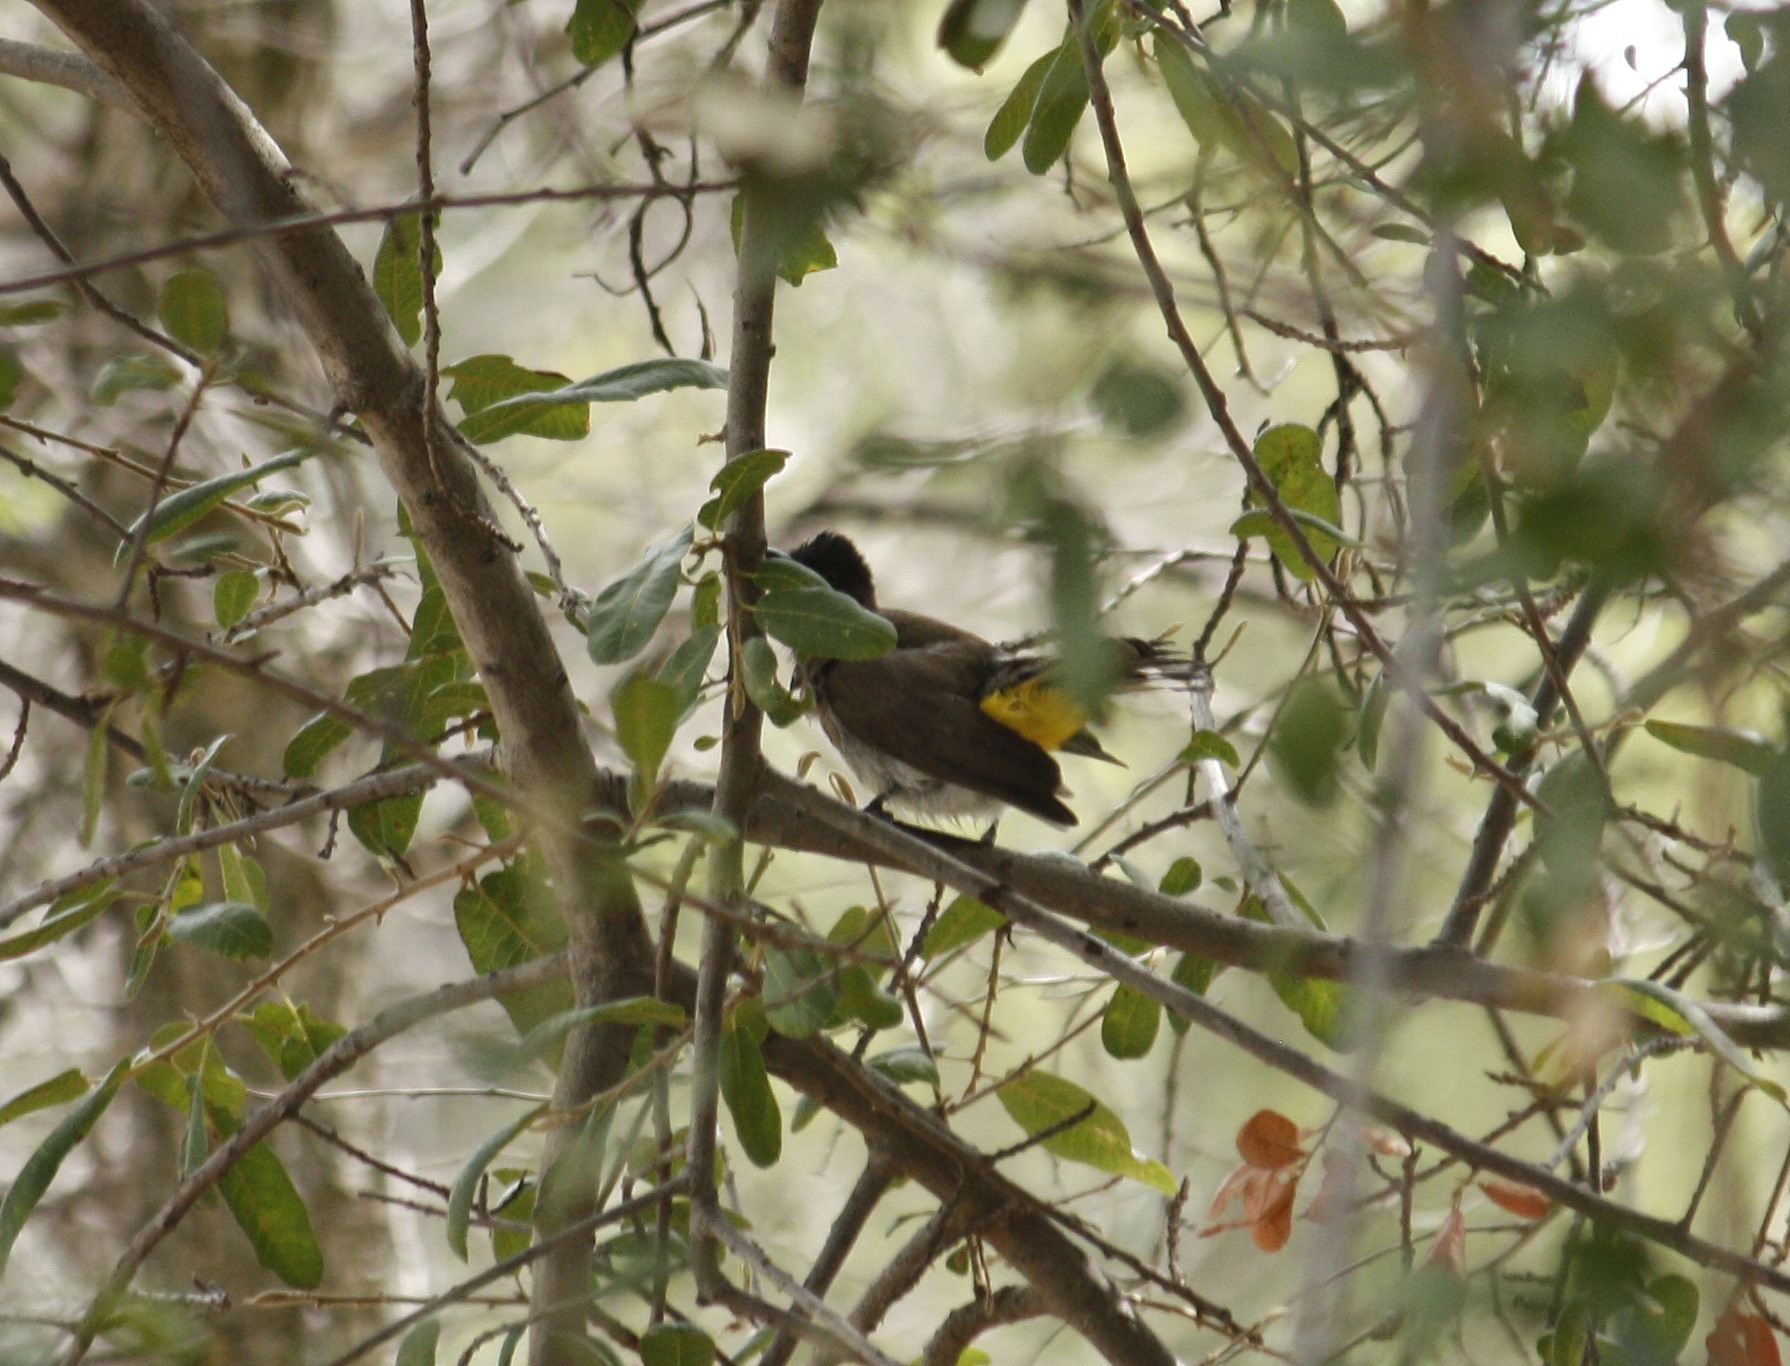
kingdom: Animalia
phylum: Chordata
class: Aves
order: Passeriformes
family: Pycnonotidae
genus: Pycnonotus
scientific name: Pycnonotus barbatus
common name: Common bulbul
